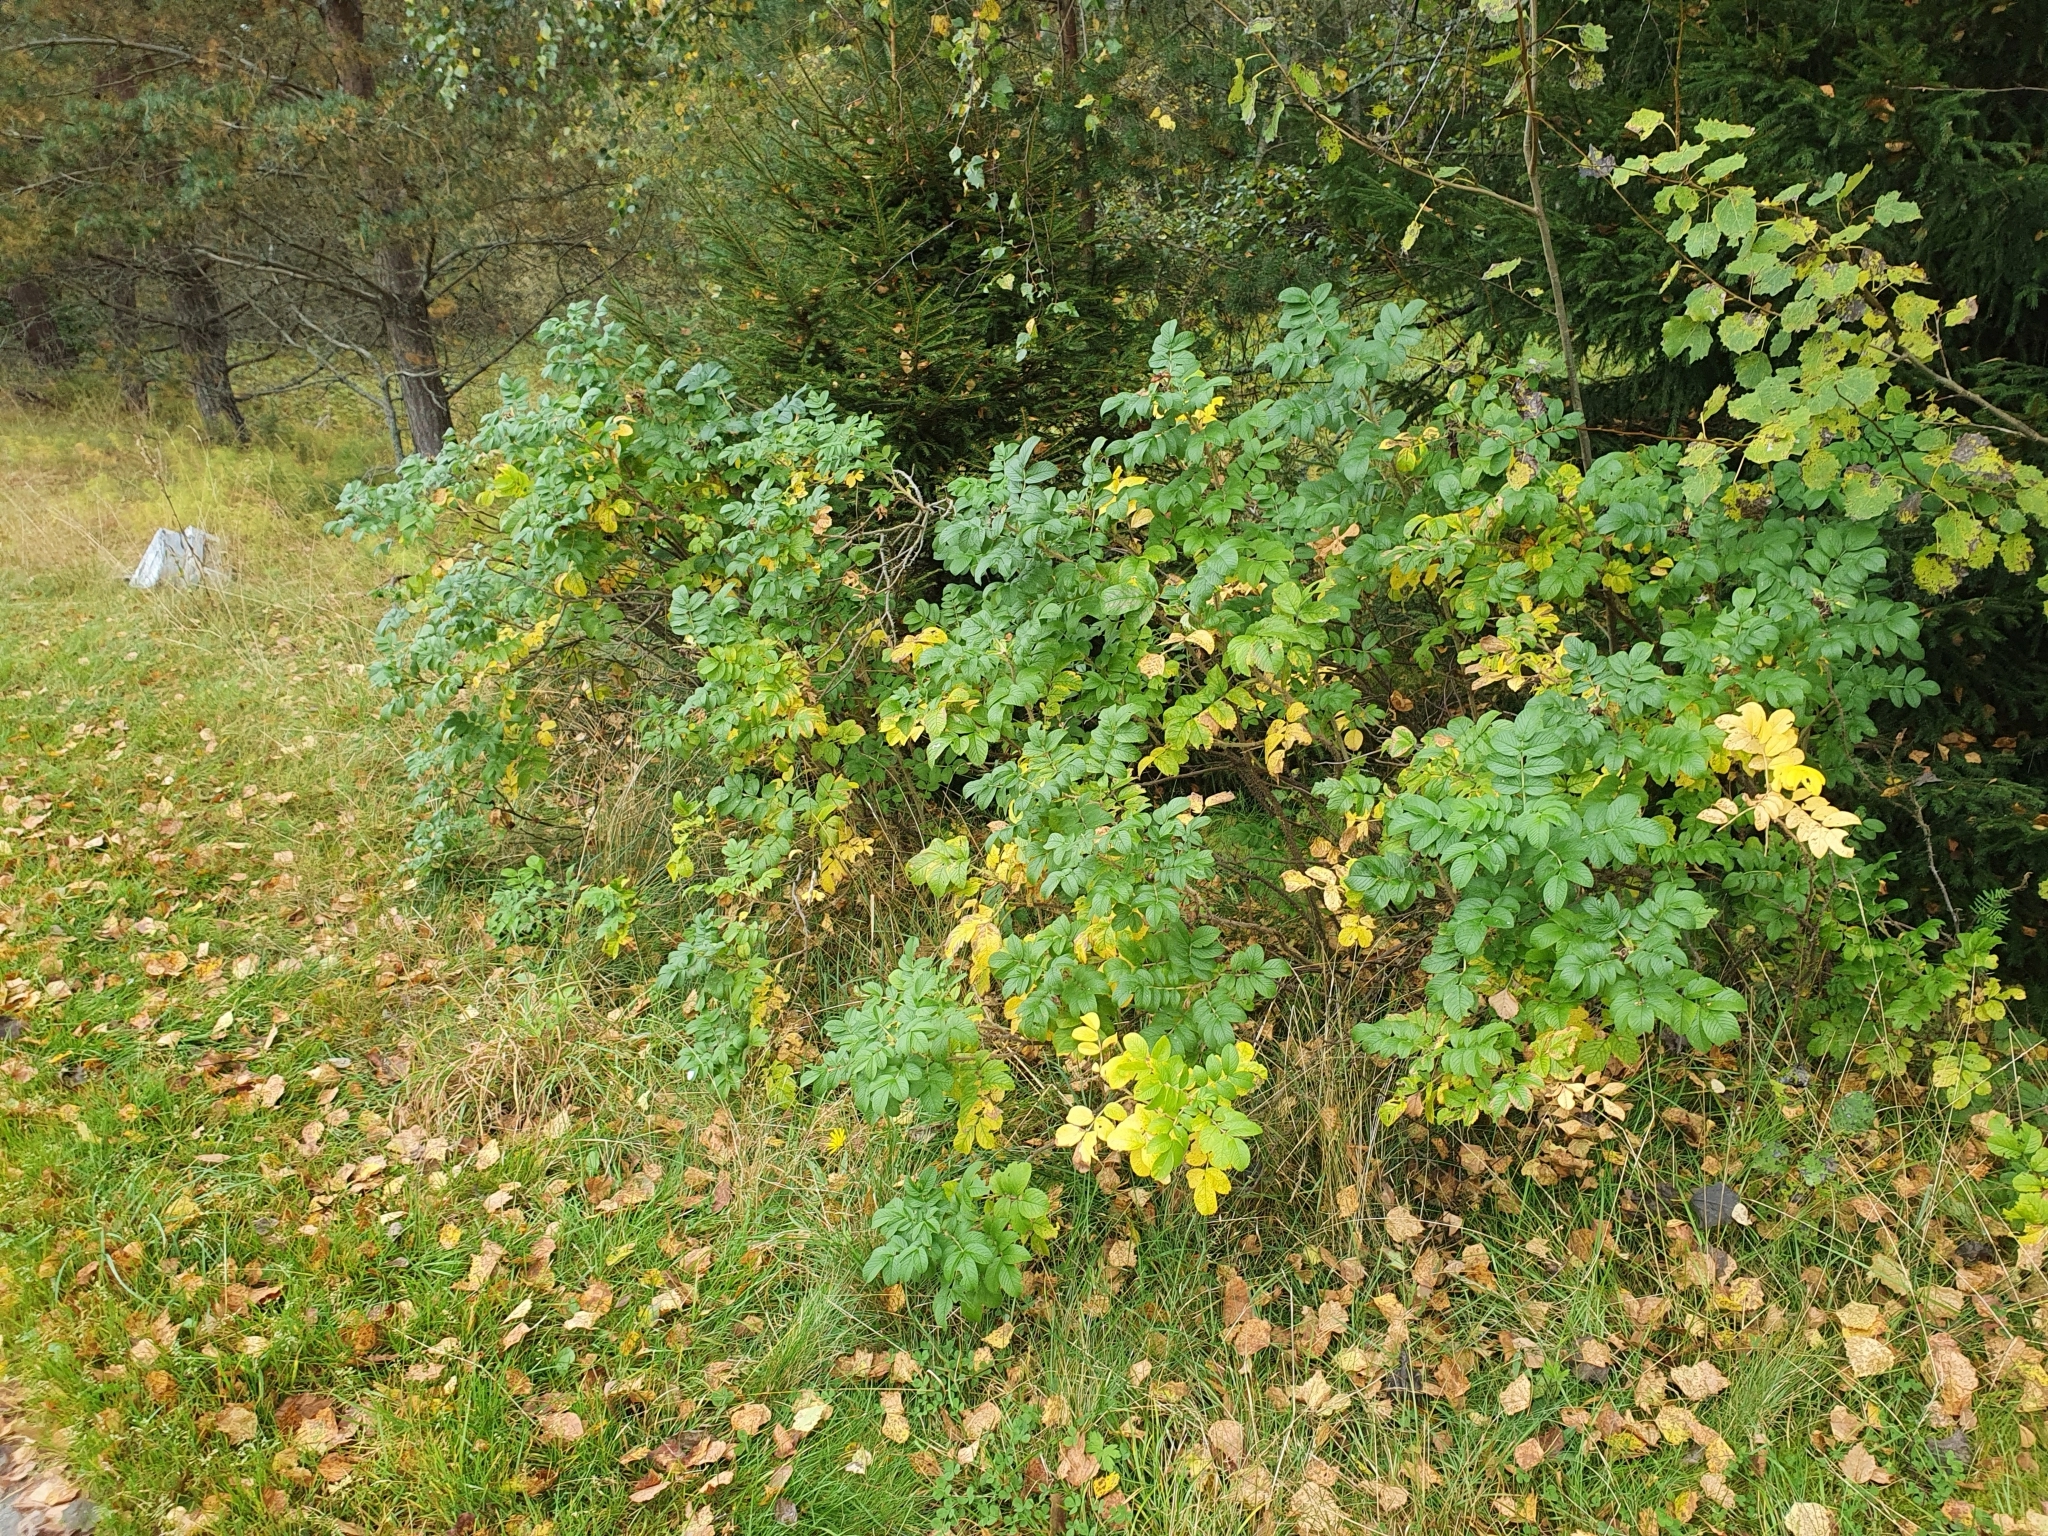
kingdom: Plantae
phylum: Tracheophyta
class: Magnoliopsida
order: Rosales
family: Rosaceae
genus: Rosa
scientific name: Rosa rugosa
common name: Japanese rose
